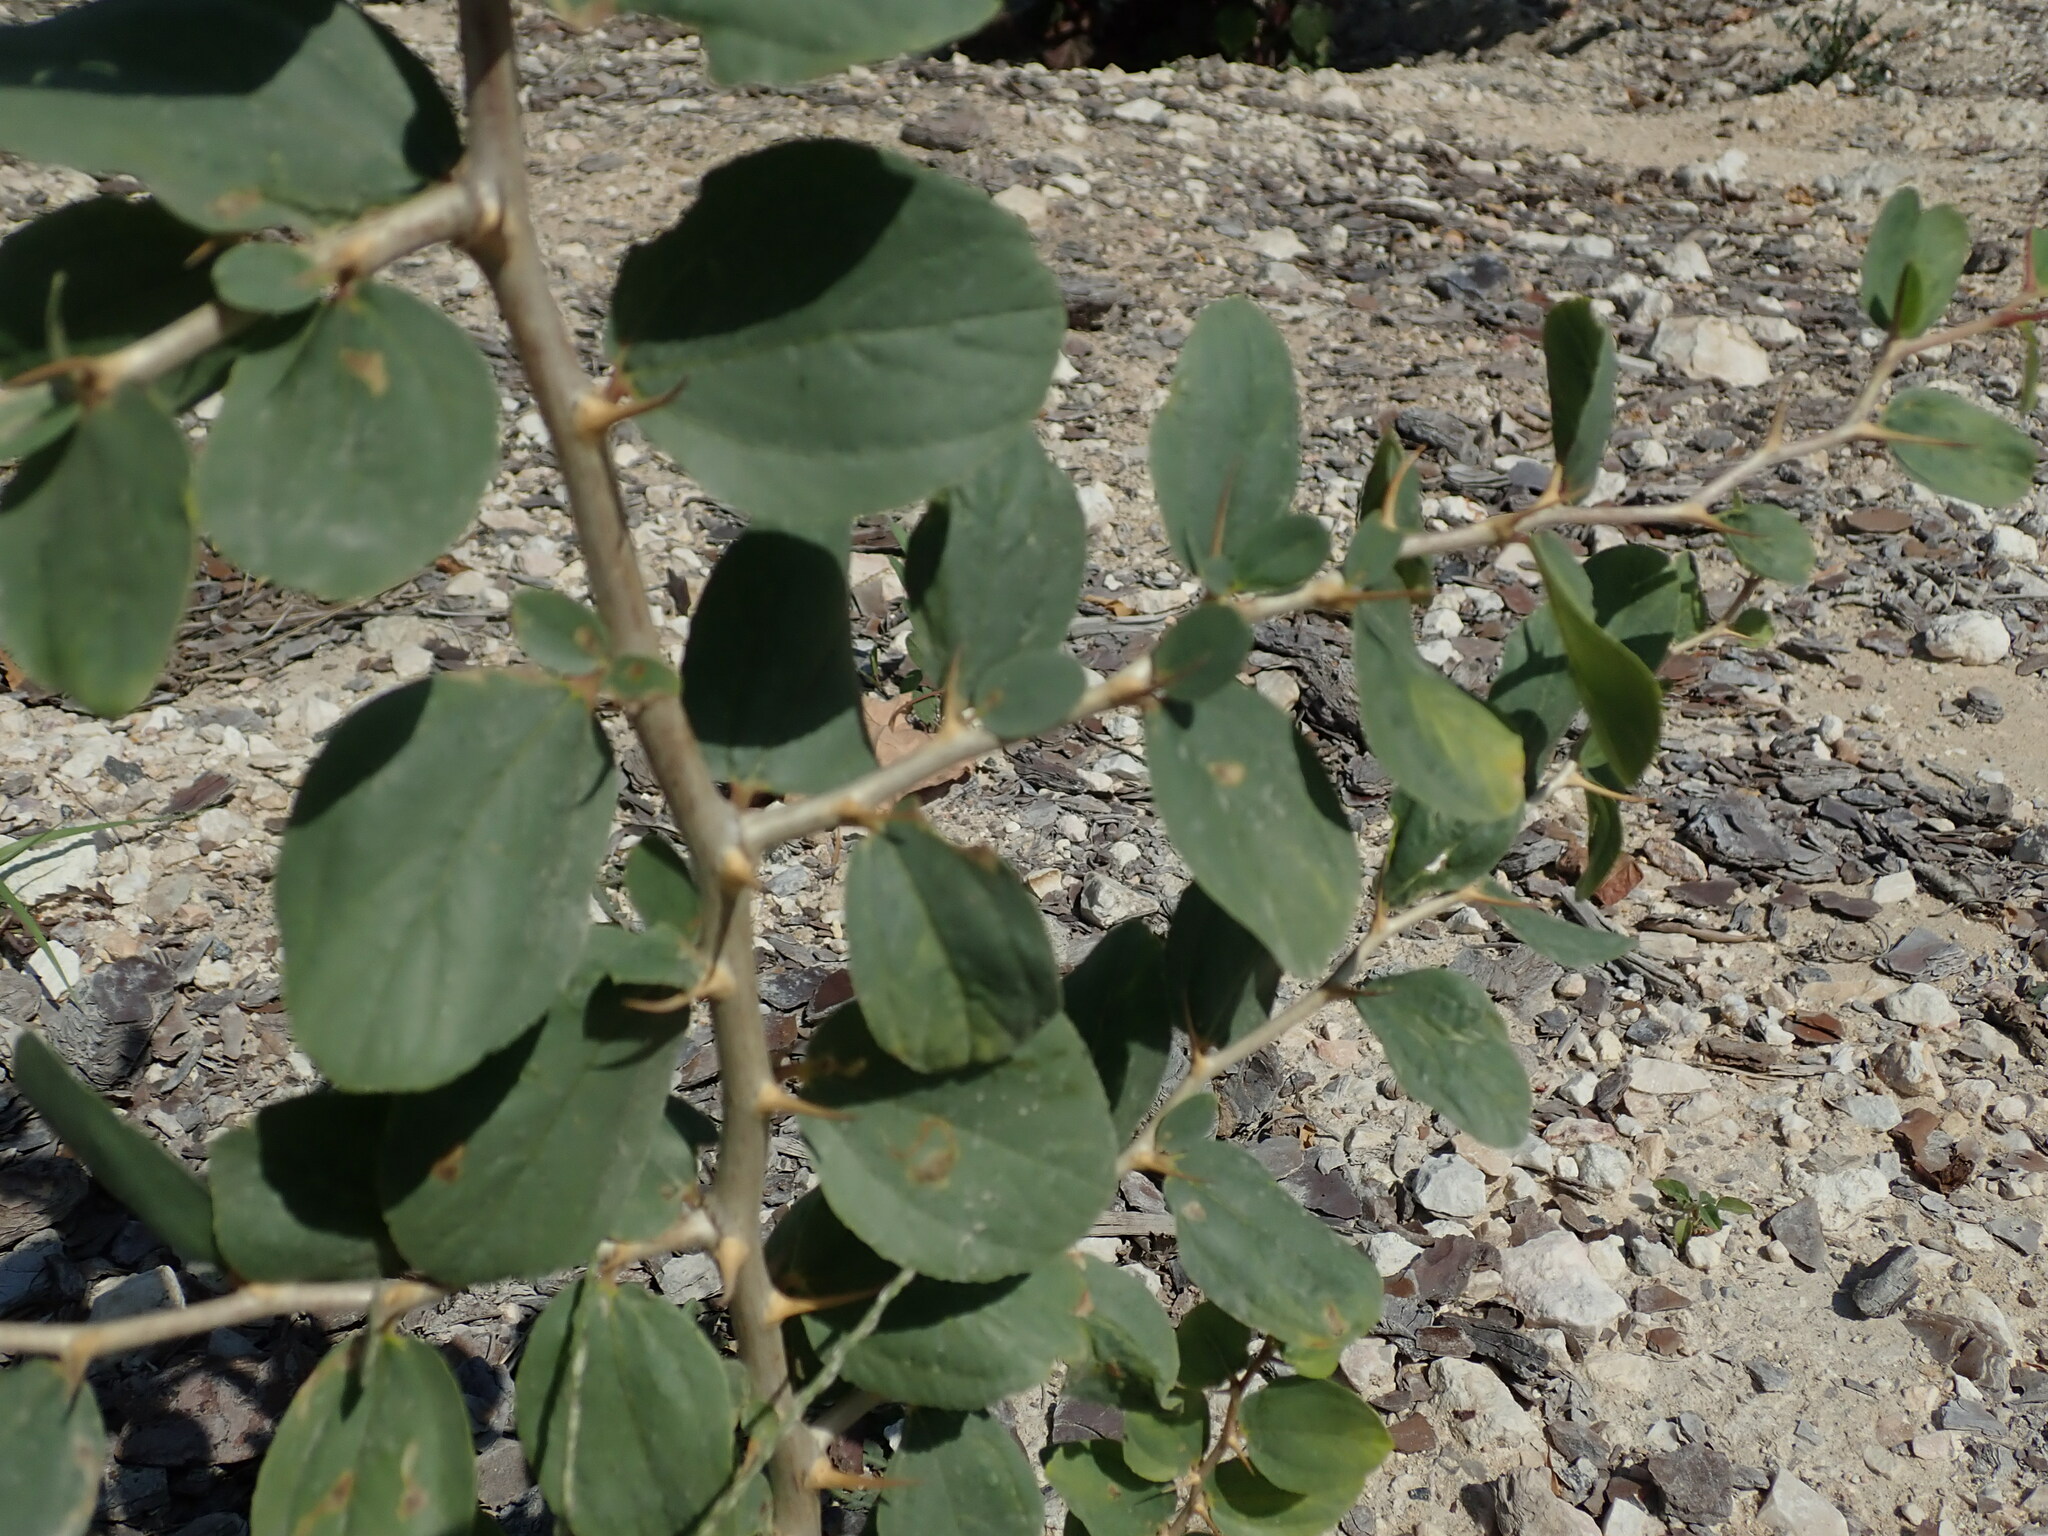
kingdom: Plantae
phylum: Tracheophyta
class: Magnoliopsida
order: Rosales
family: Rhamnaceae
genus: Ziziphus
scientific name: Ziziphus spina-christi
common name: Syrian christ-thorn
